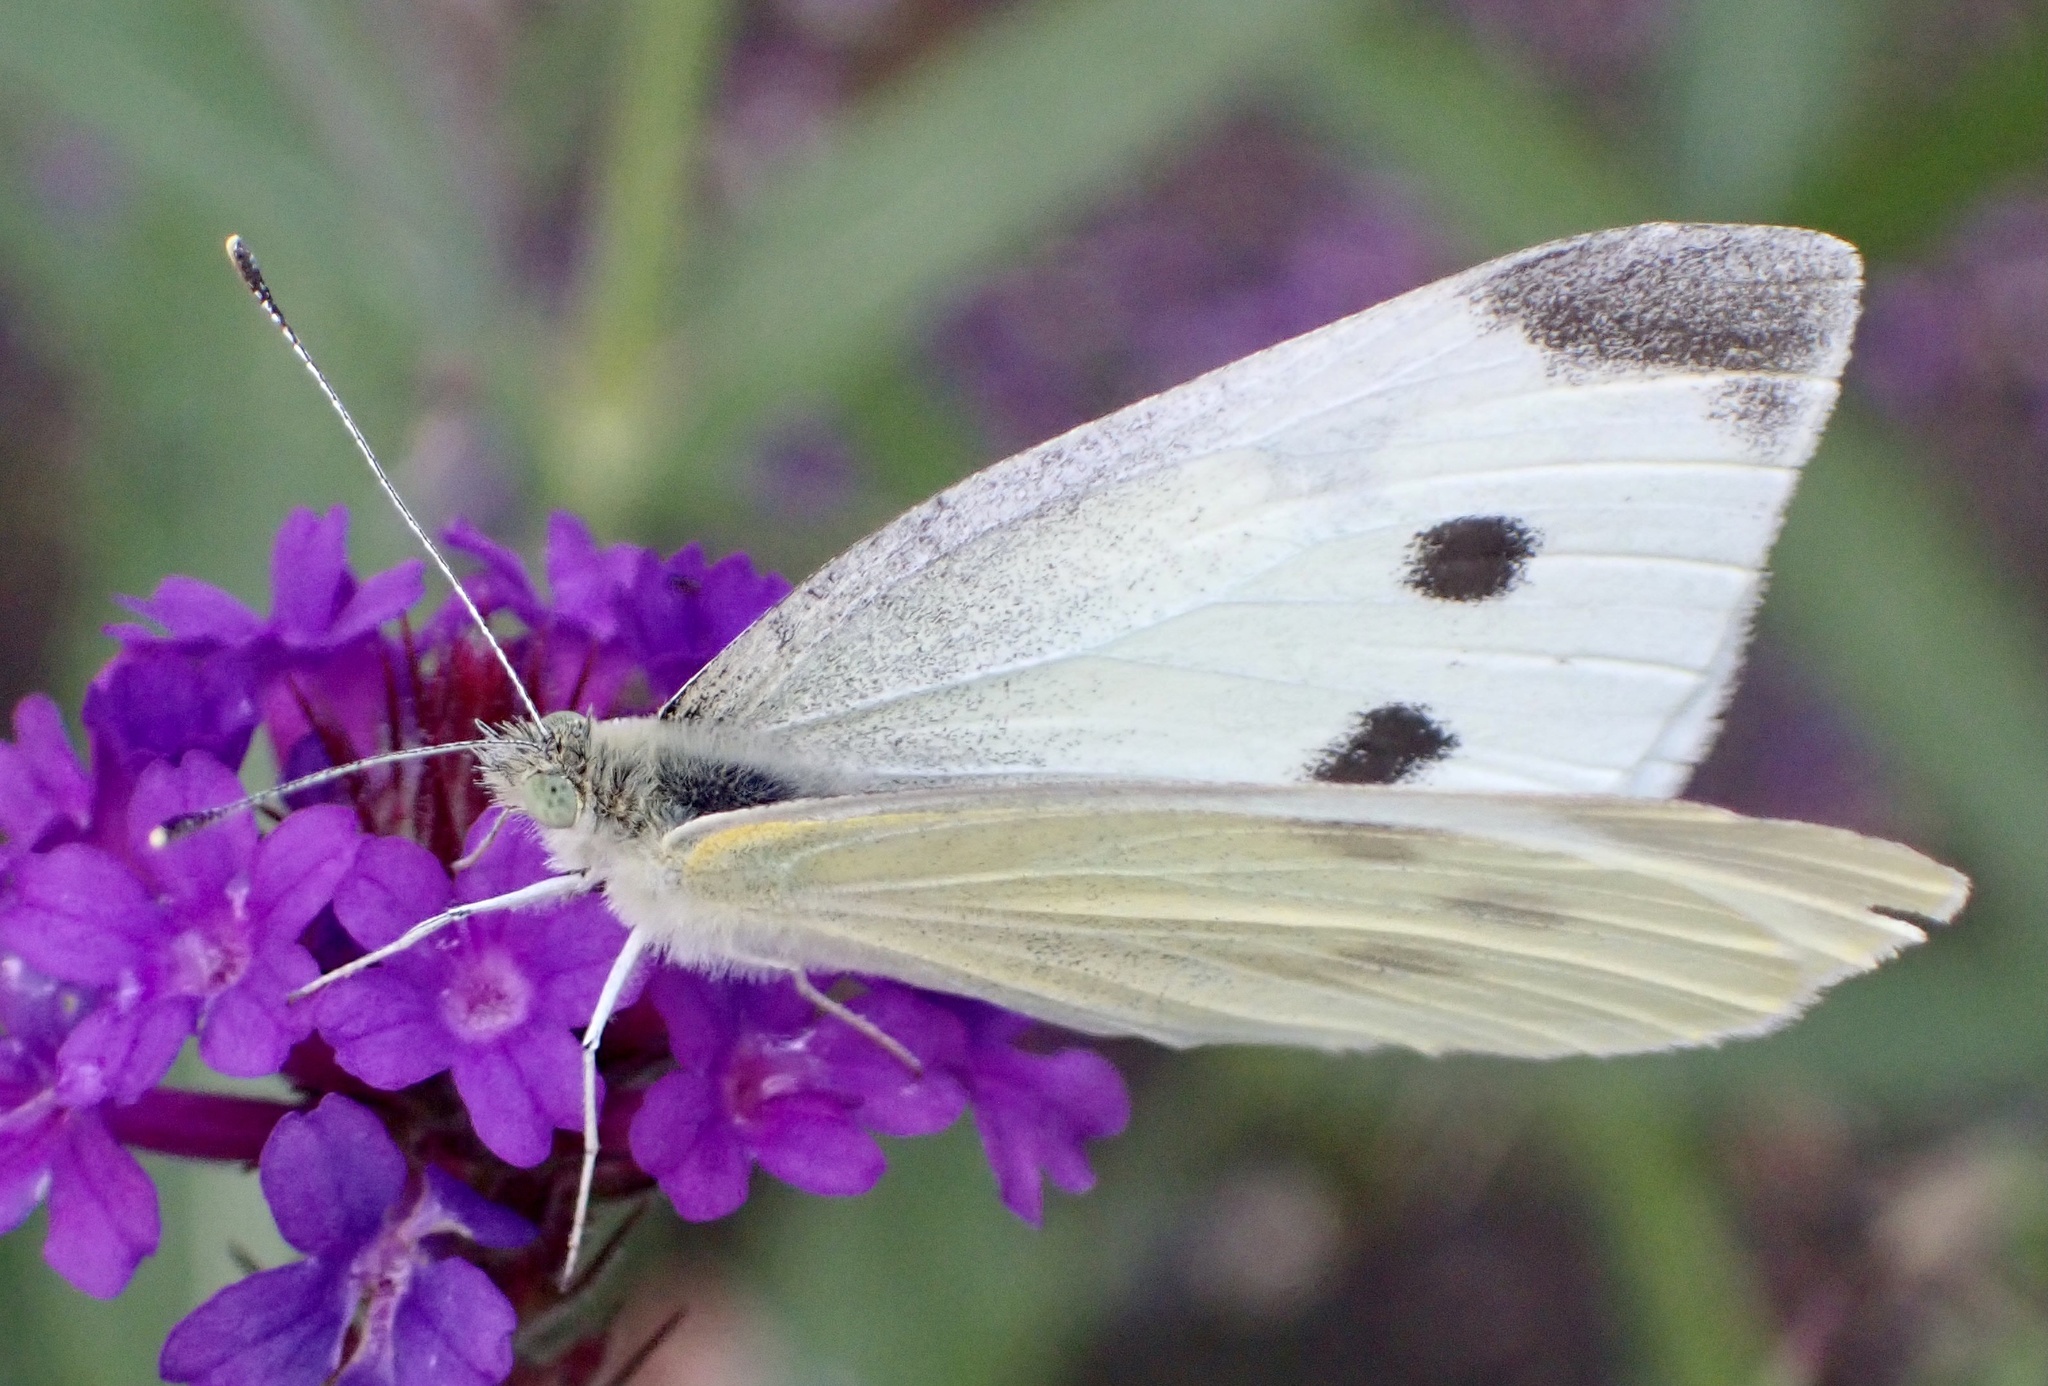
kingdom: Animalia
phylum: Arthropoda
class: Insecta
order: Lepidoptera
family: Pieridae
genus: Pieris
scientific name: Pieris rapae
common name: Small white
